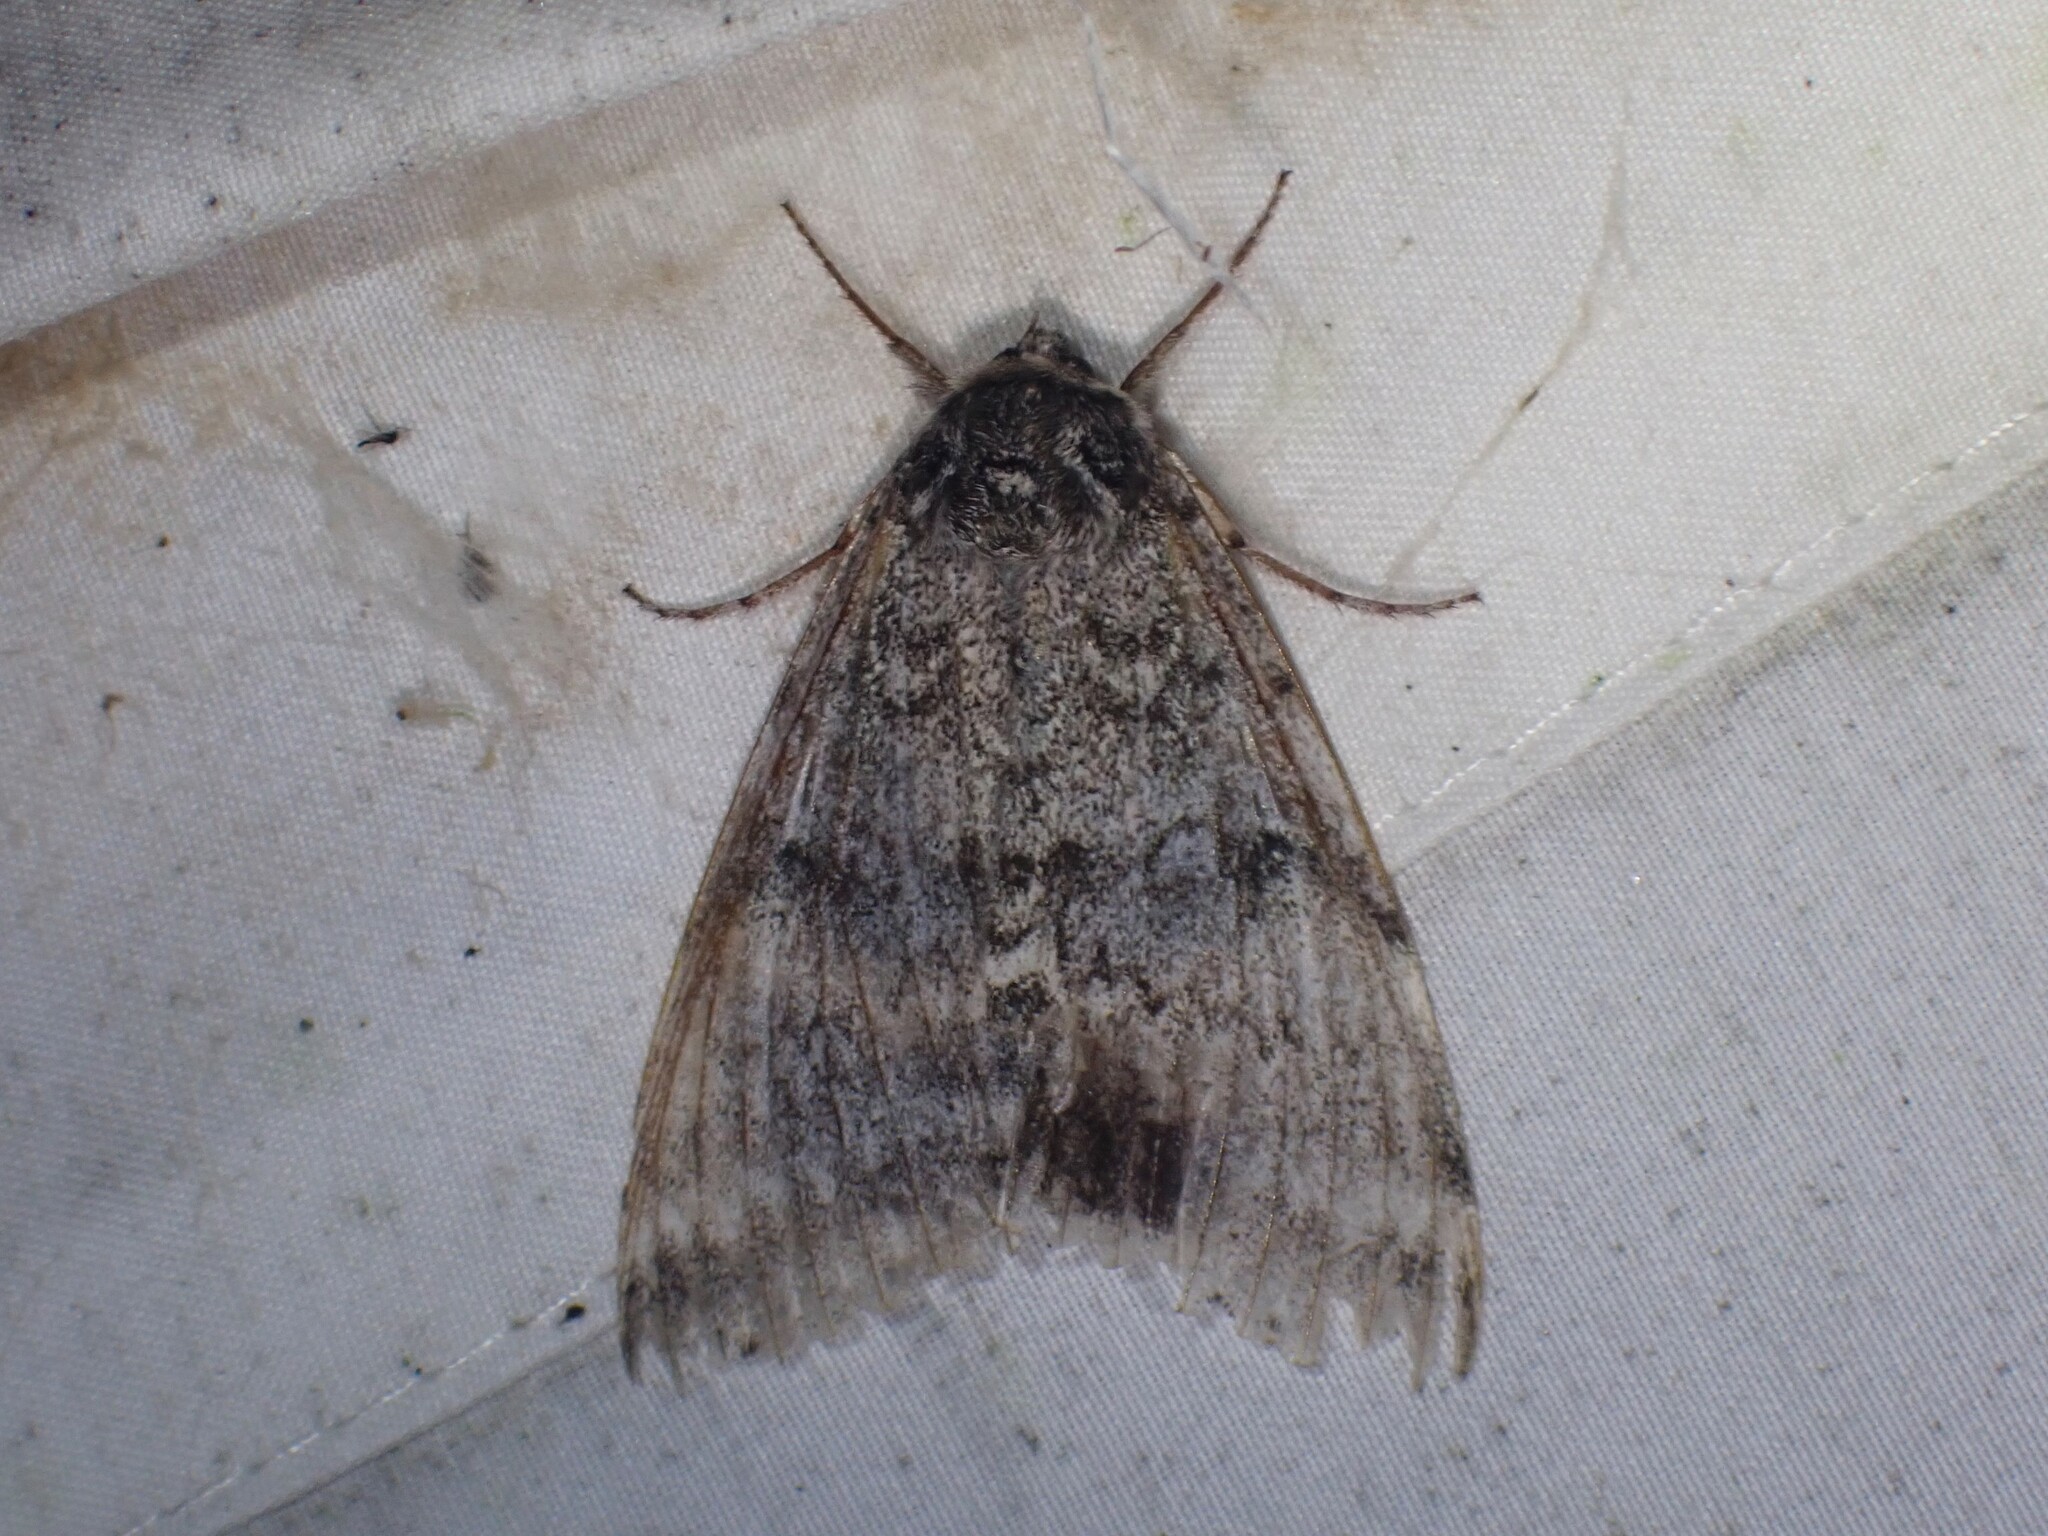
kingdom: Animalia
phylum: Arthropoda
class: Insecta
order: Lepidoptera
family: Erebidae
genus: Catocala
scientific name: Catocala relicta
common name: White underwing
